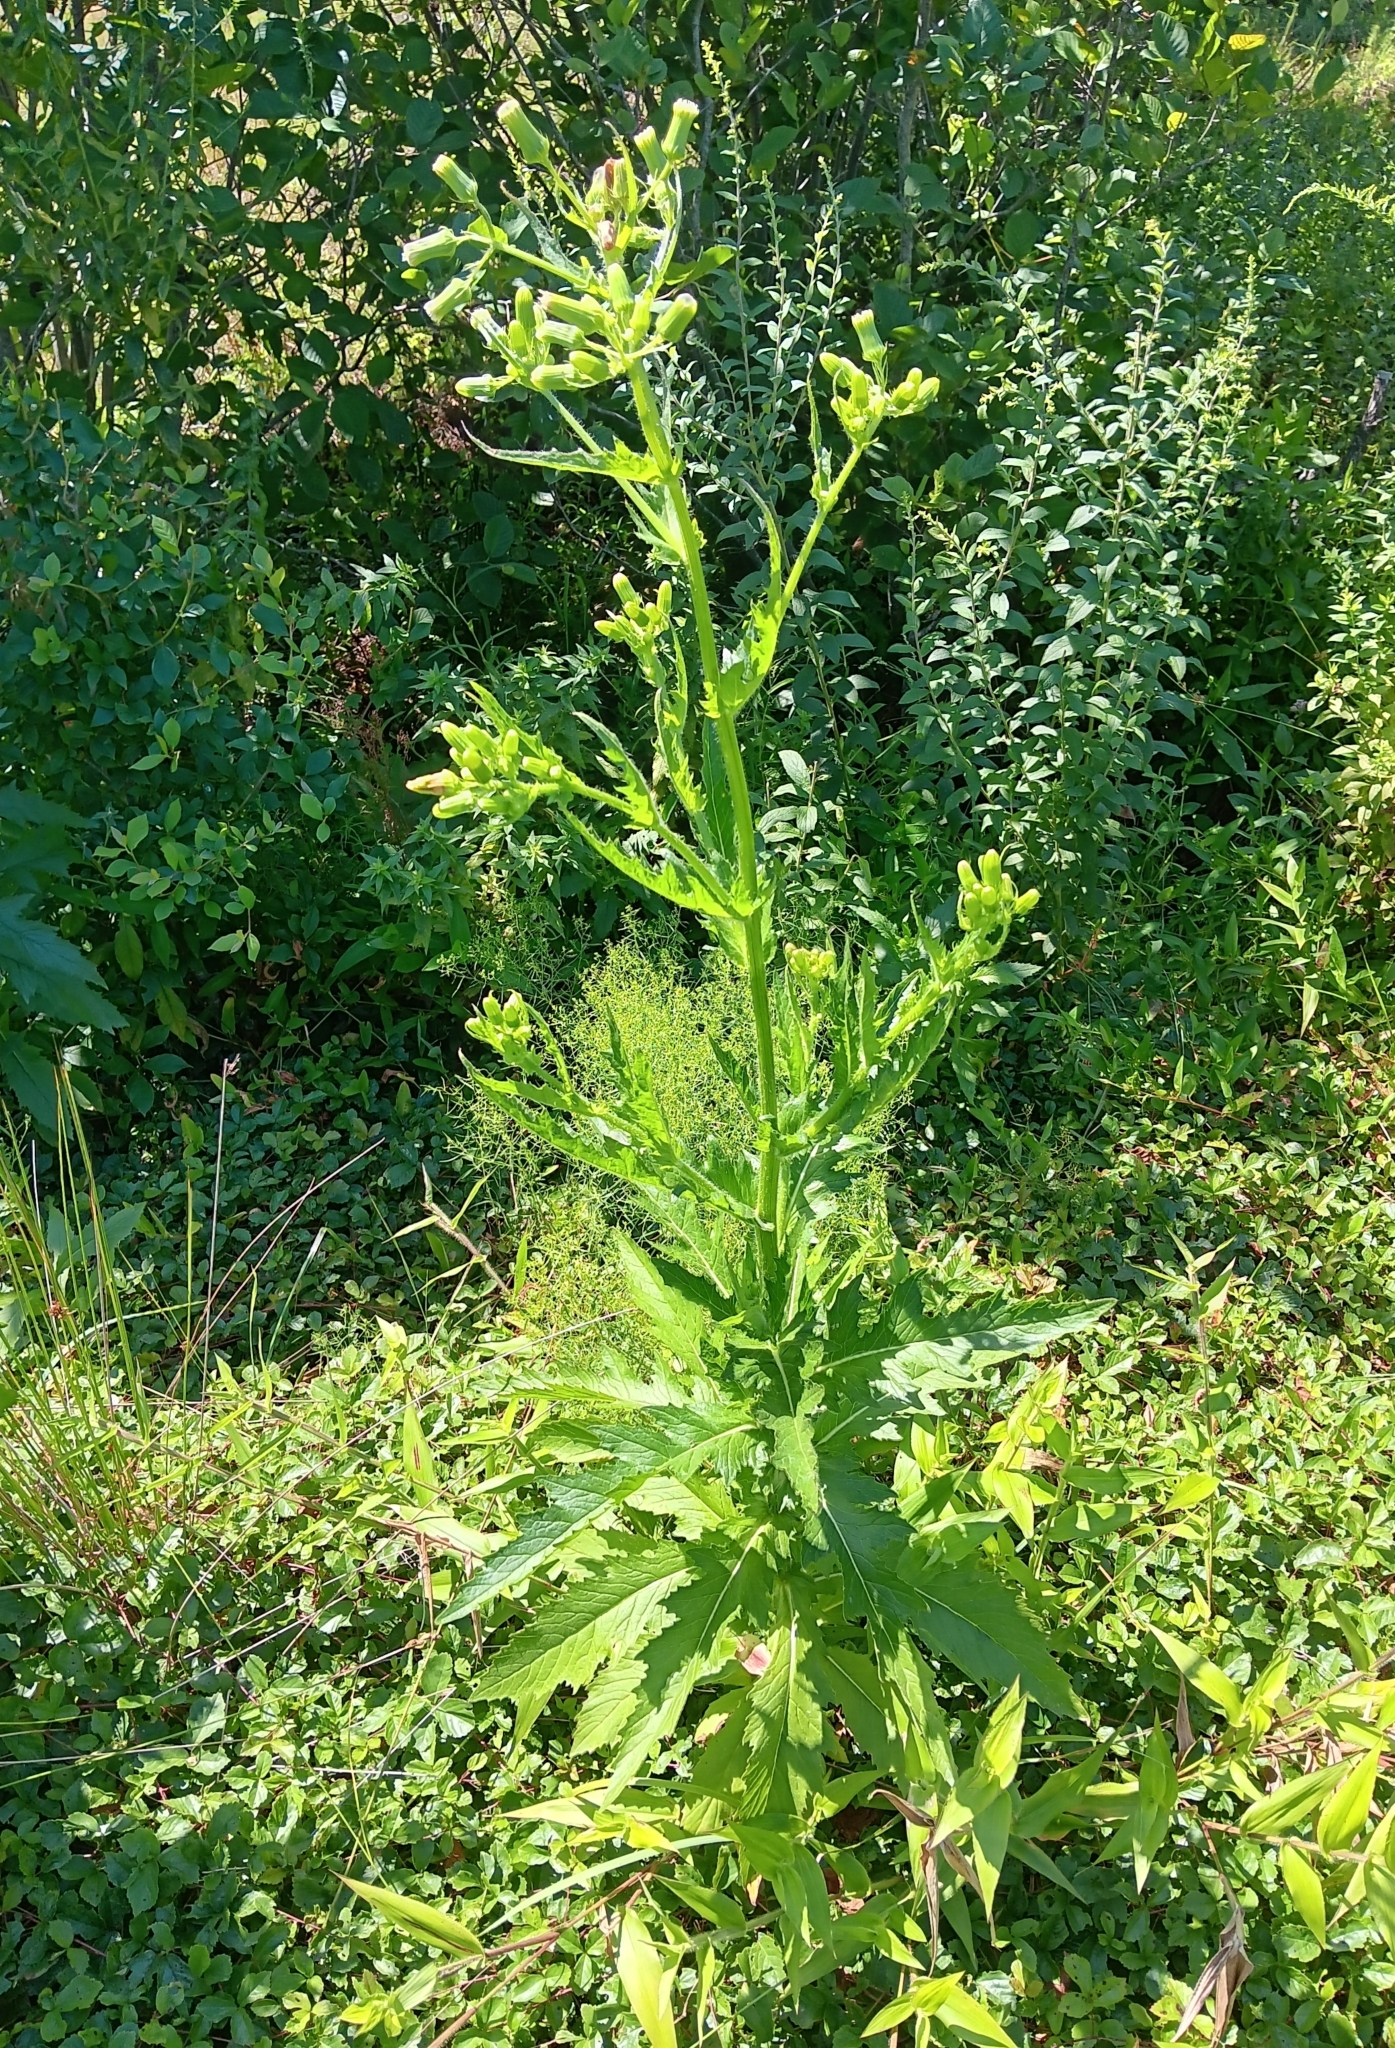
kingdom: Plantae
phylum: Tracheophyta
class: Magnoliopsida
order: Asterales
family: Asteraceae
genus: Erechtites
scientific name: Erechtites hieraciifolius
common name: American burnweed
